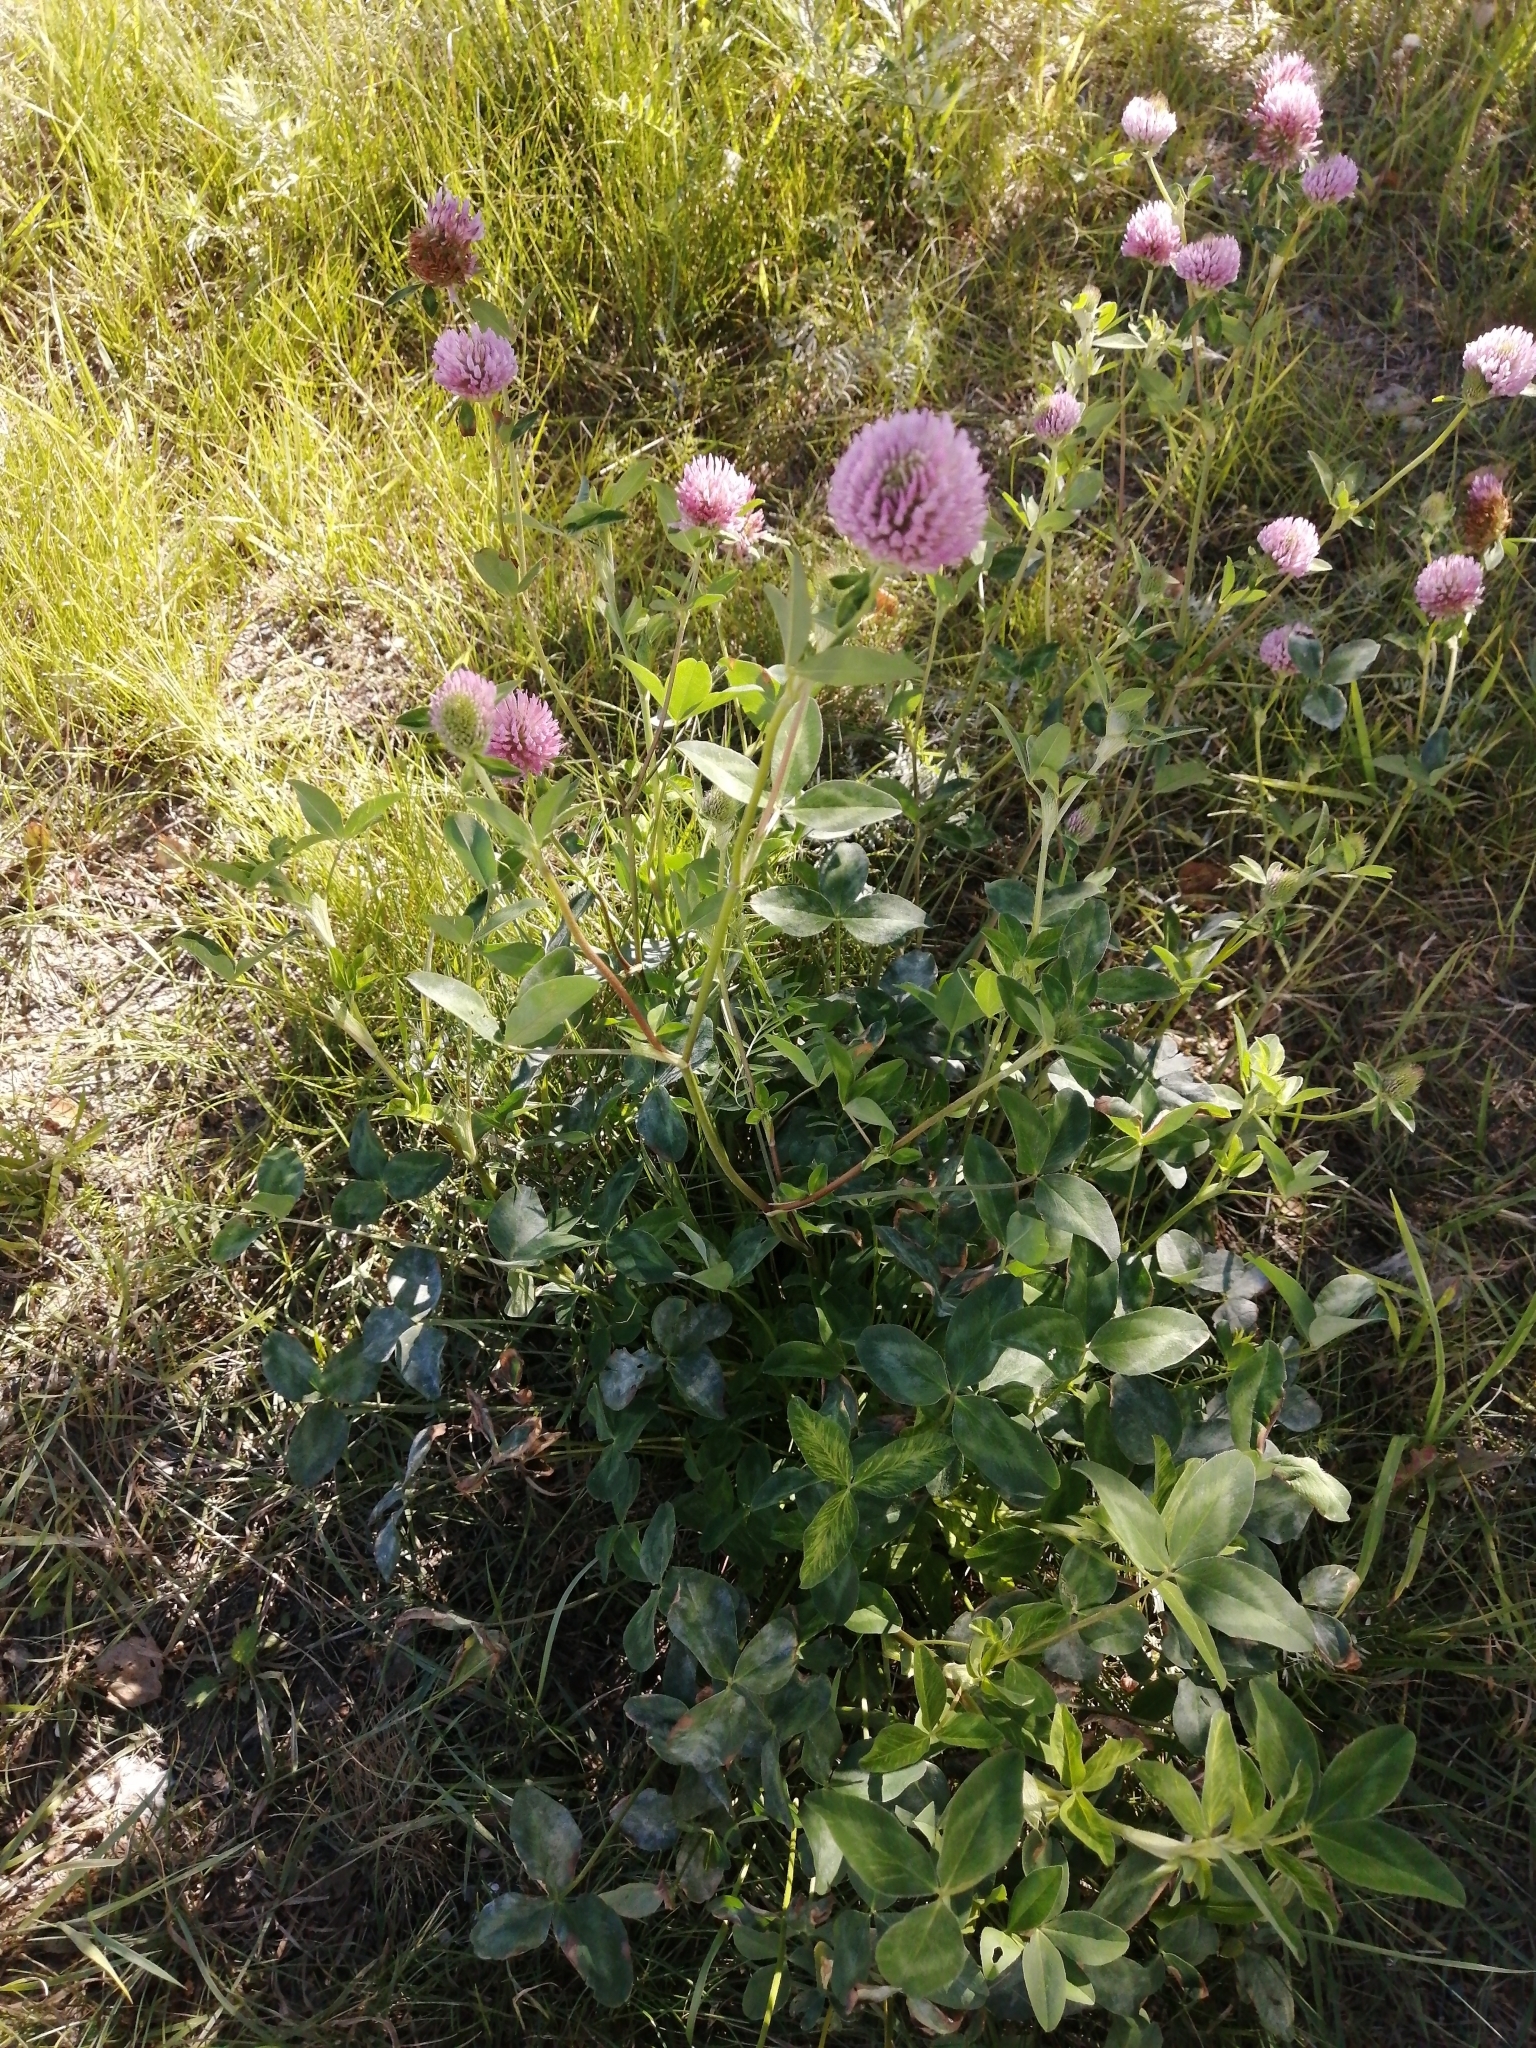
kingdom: Plantae
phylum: Tracheophyta
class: Magnoliopsida
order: Fabales
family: Fabaceae
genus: Trifolium
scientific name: Trifolium pratense
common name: Red clover
